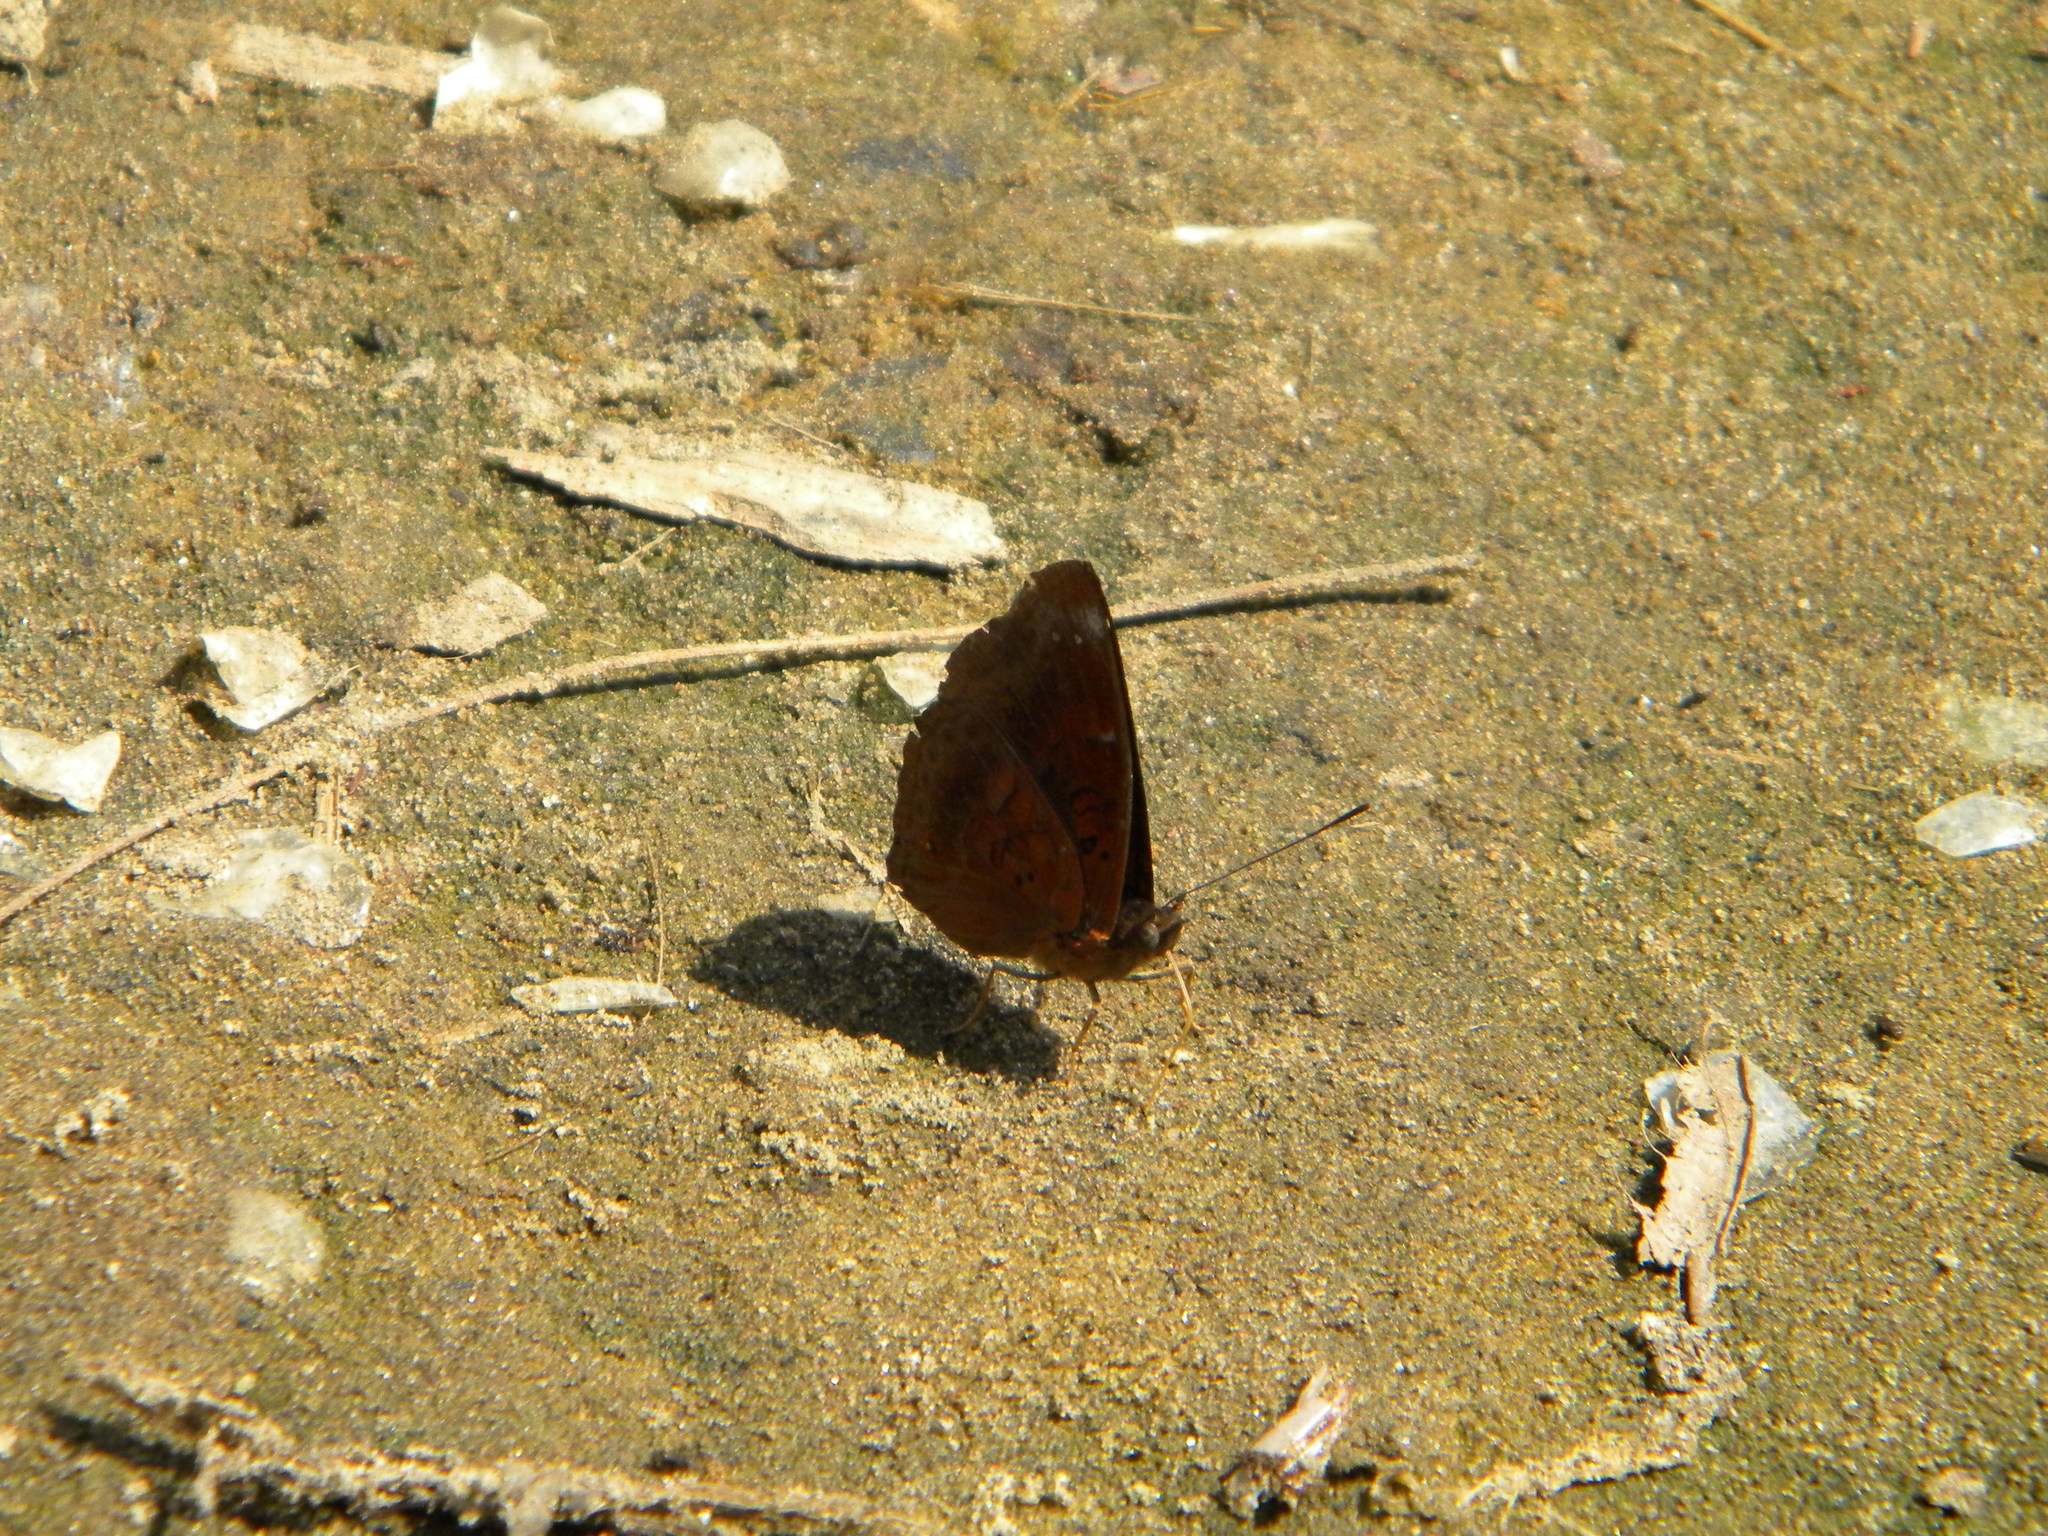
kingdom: Animalia
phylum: Arthropoda
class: Insecta
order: Lepidoptera
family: Nymphalidae
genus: Apatura
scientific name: Apatura Rohana spec
